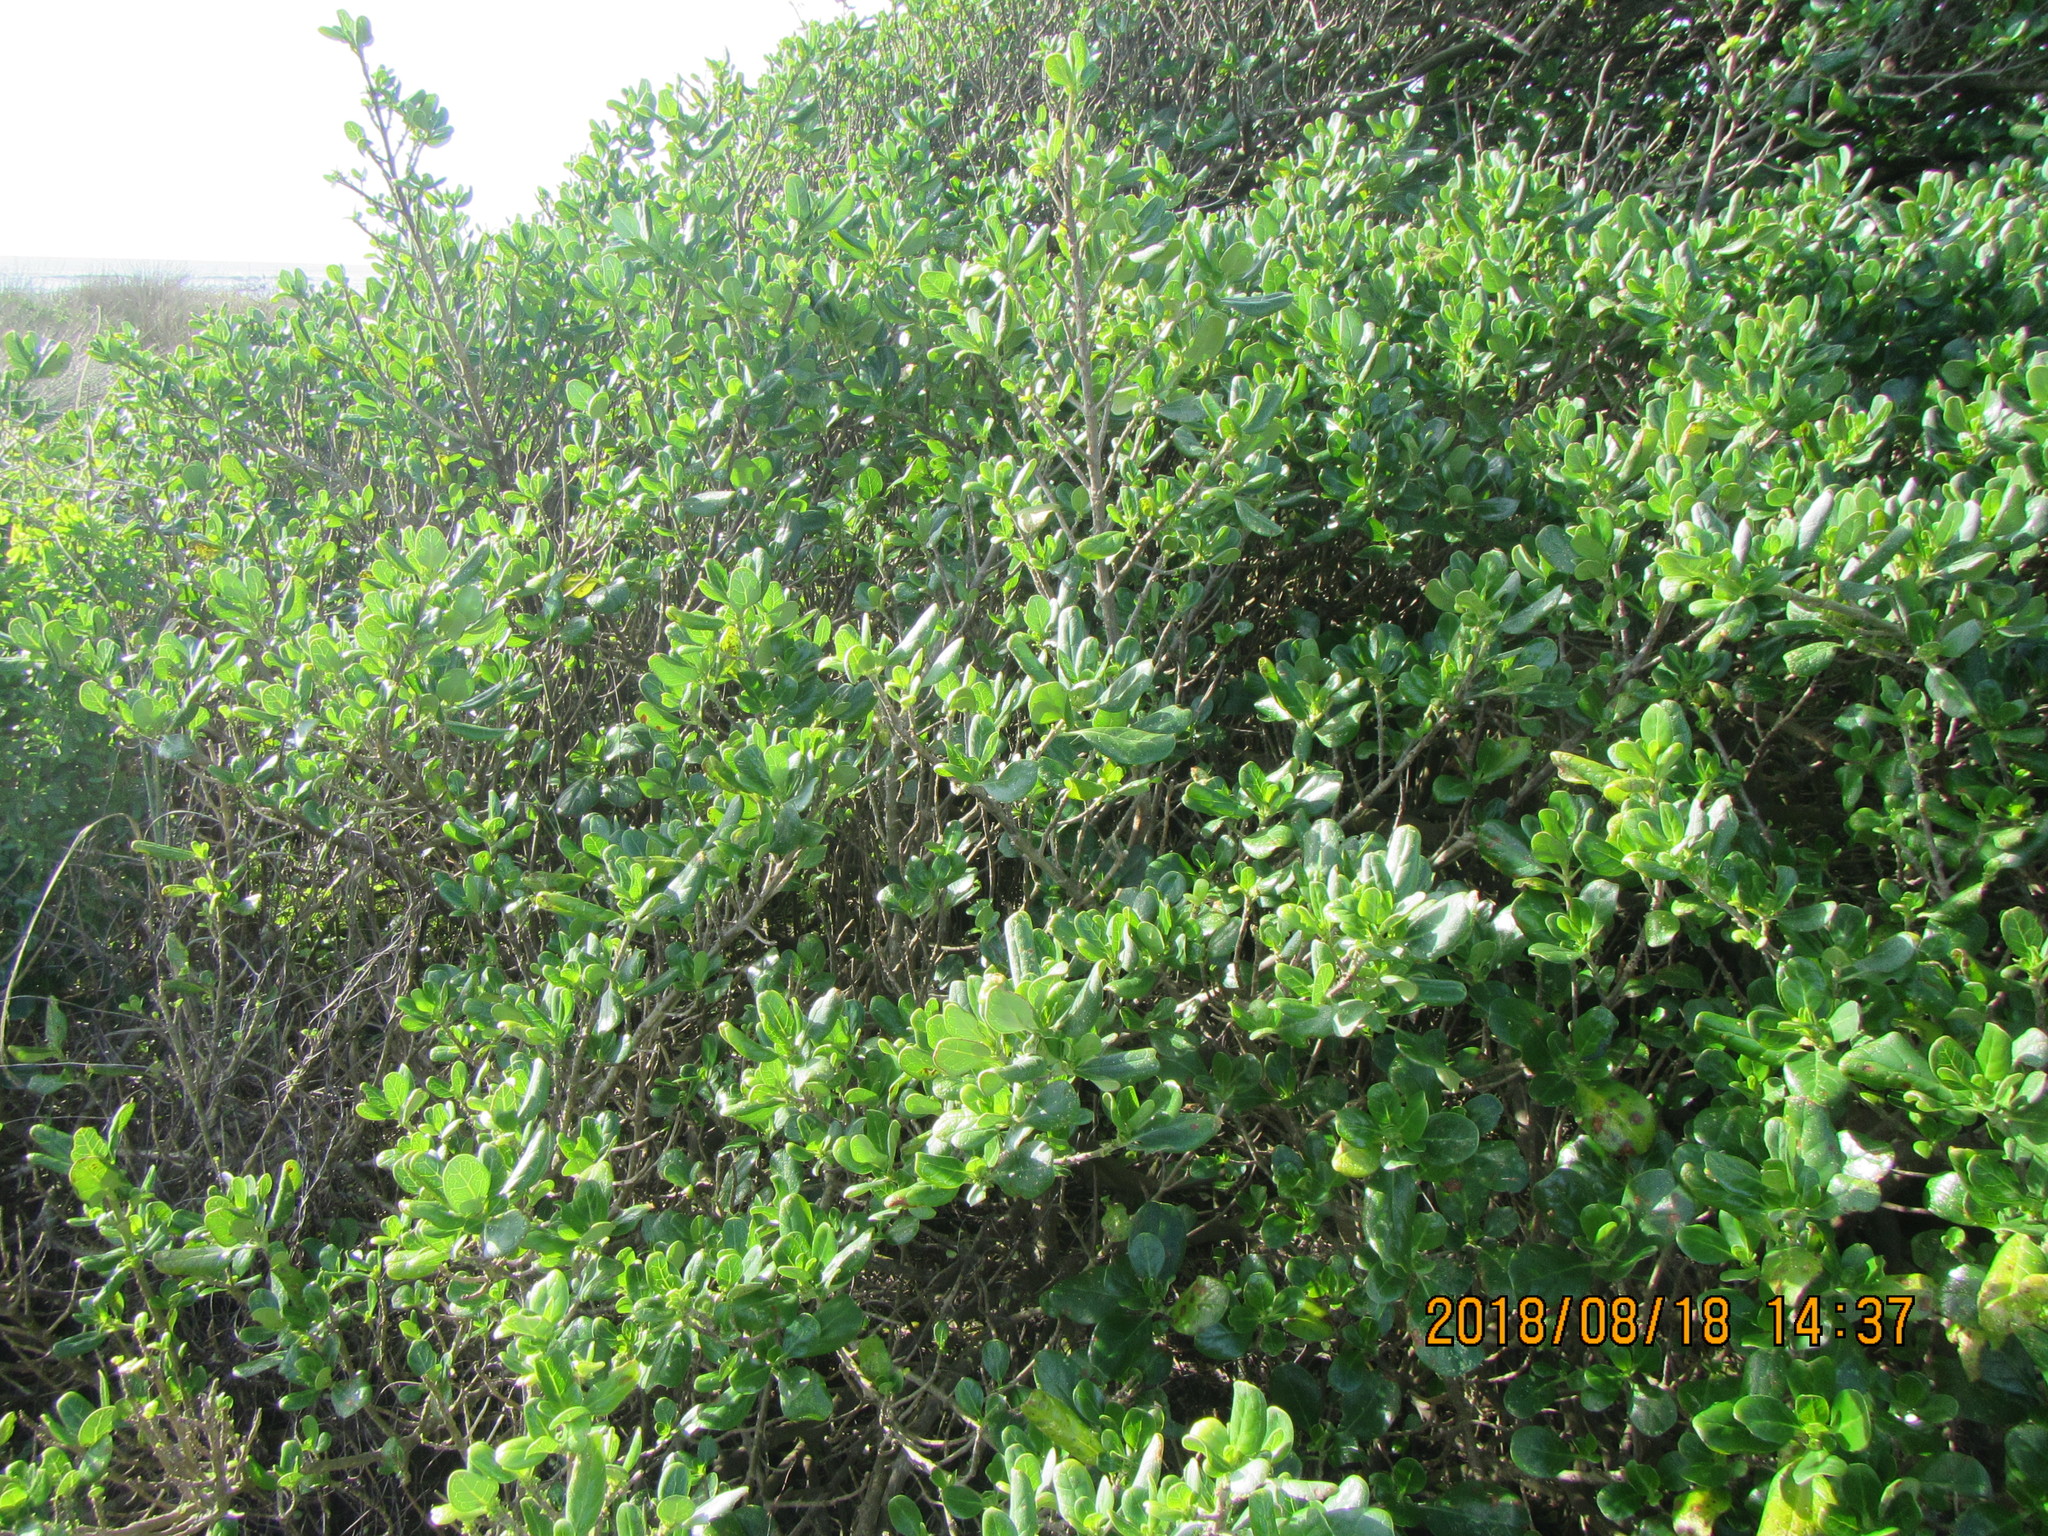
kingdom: Plantae
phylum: Tracheophyta
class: Magnoliopsida
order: Gentianales
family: Rubiaceae
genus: Coprosma
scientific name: Coprosma repens
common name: Tree bedstraw
